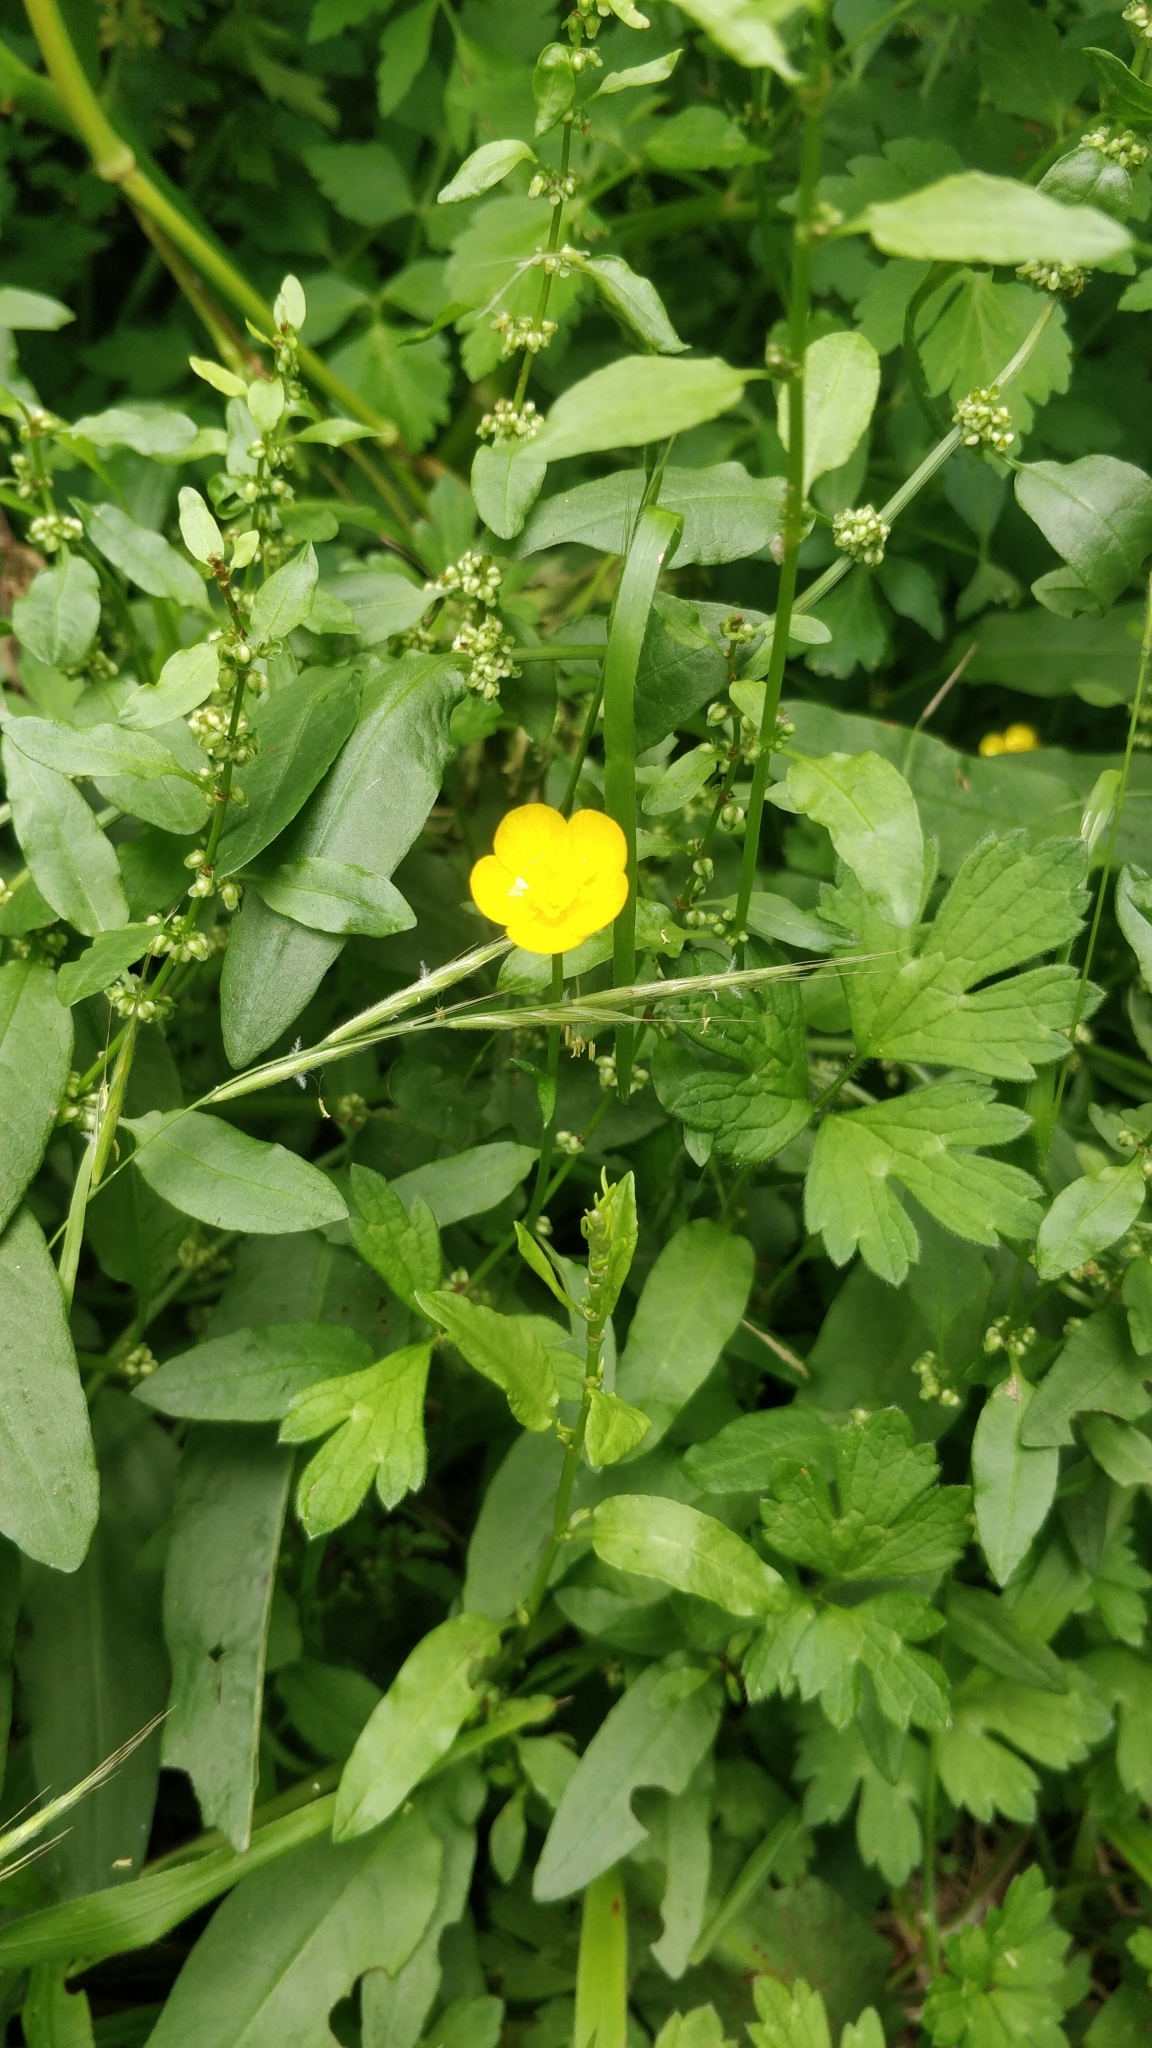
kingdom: Plantae
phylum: Tracheophyta
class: Magnoliopsida
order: Ranunculales
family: Ranunculaceae
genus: Ranunculus
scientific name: Ranunculus repens
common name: Creeping buttercup
